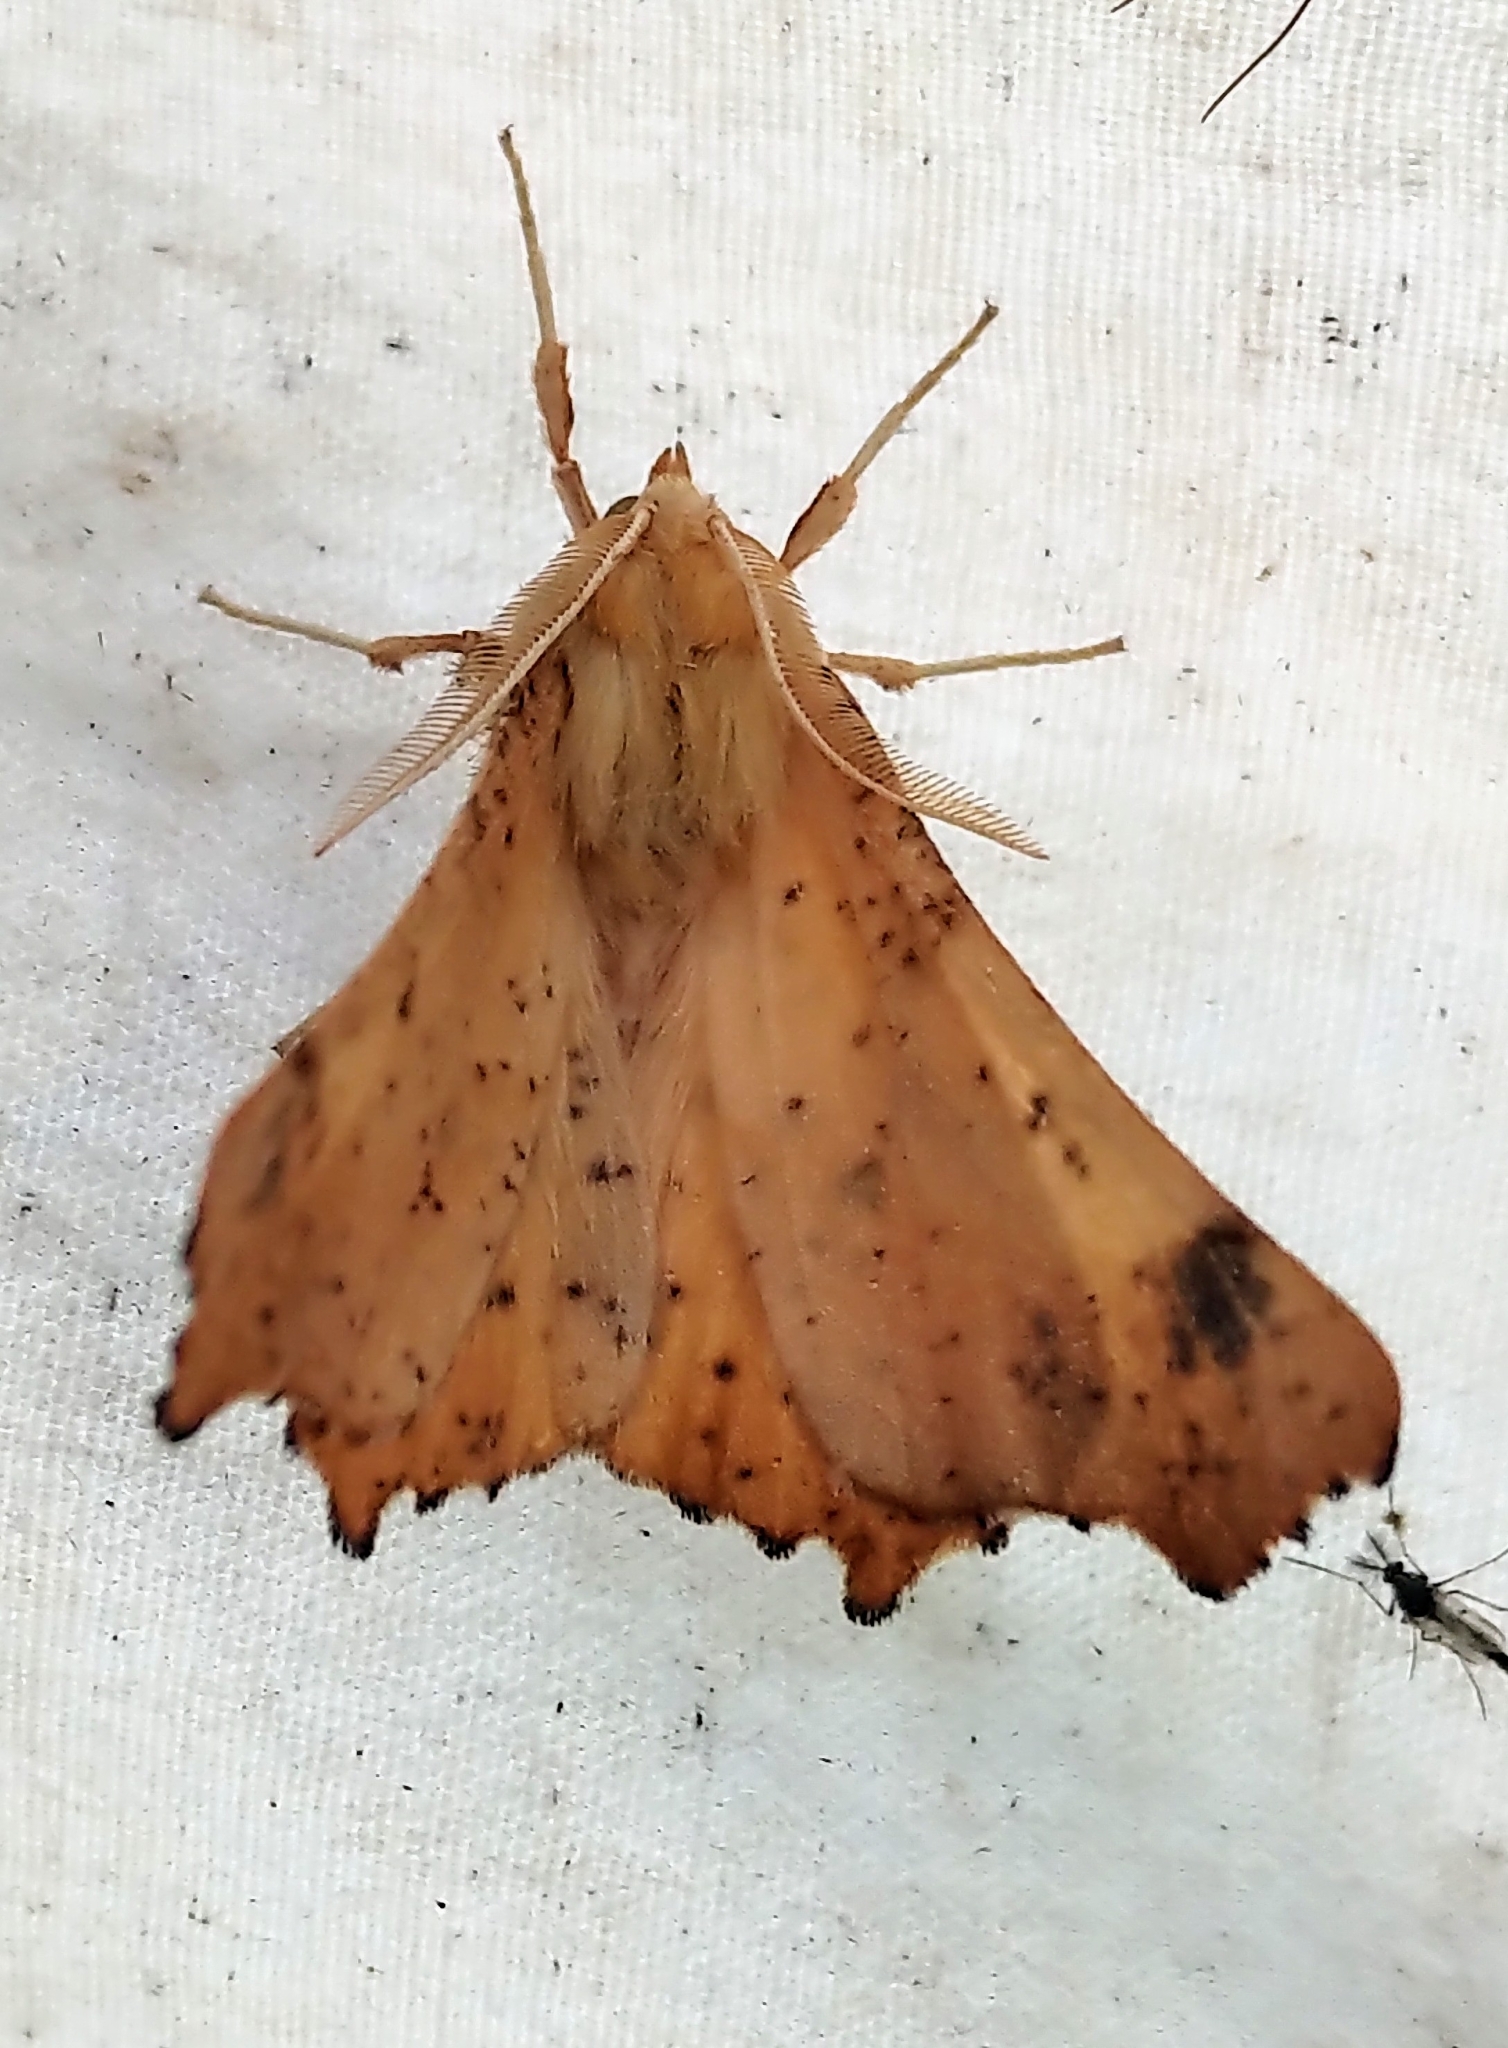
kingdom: Animalia
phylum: Arthropoda
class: Insecta
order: Lepidoptera
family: Geometridae
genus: Ennomos
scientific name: Ennomos magnaria
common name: Maple spanworm
